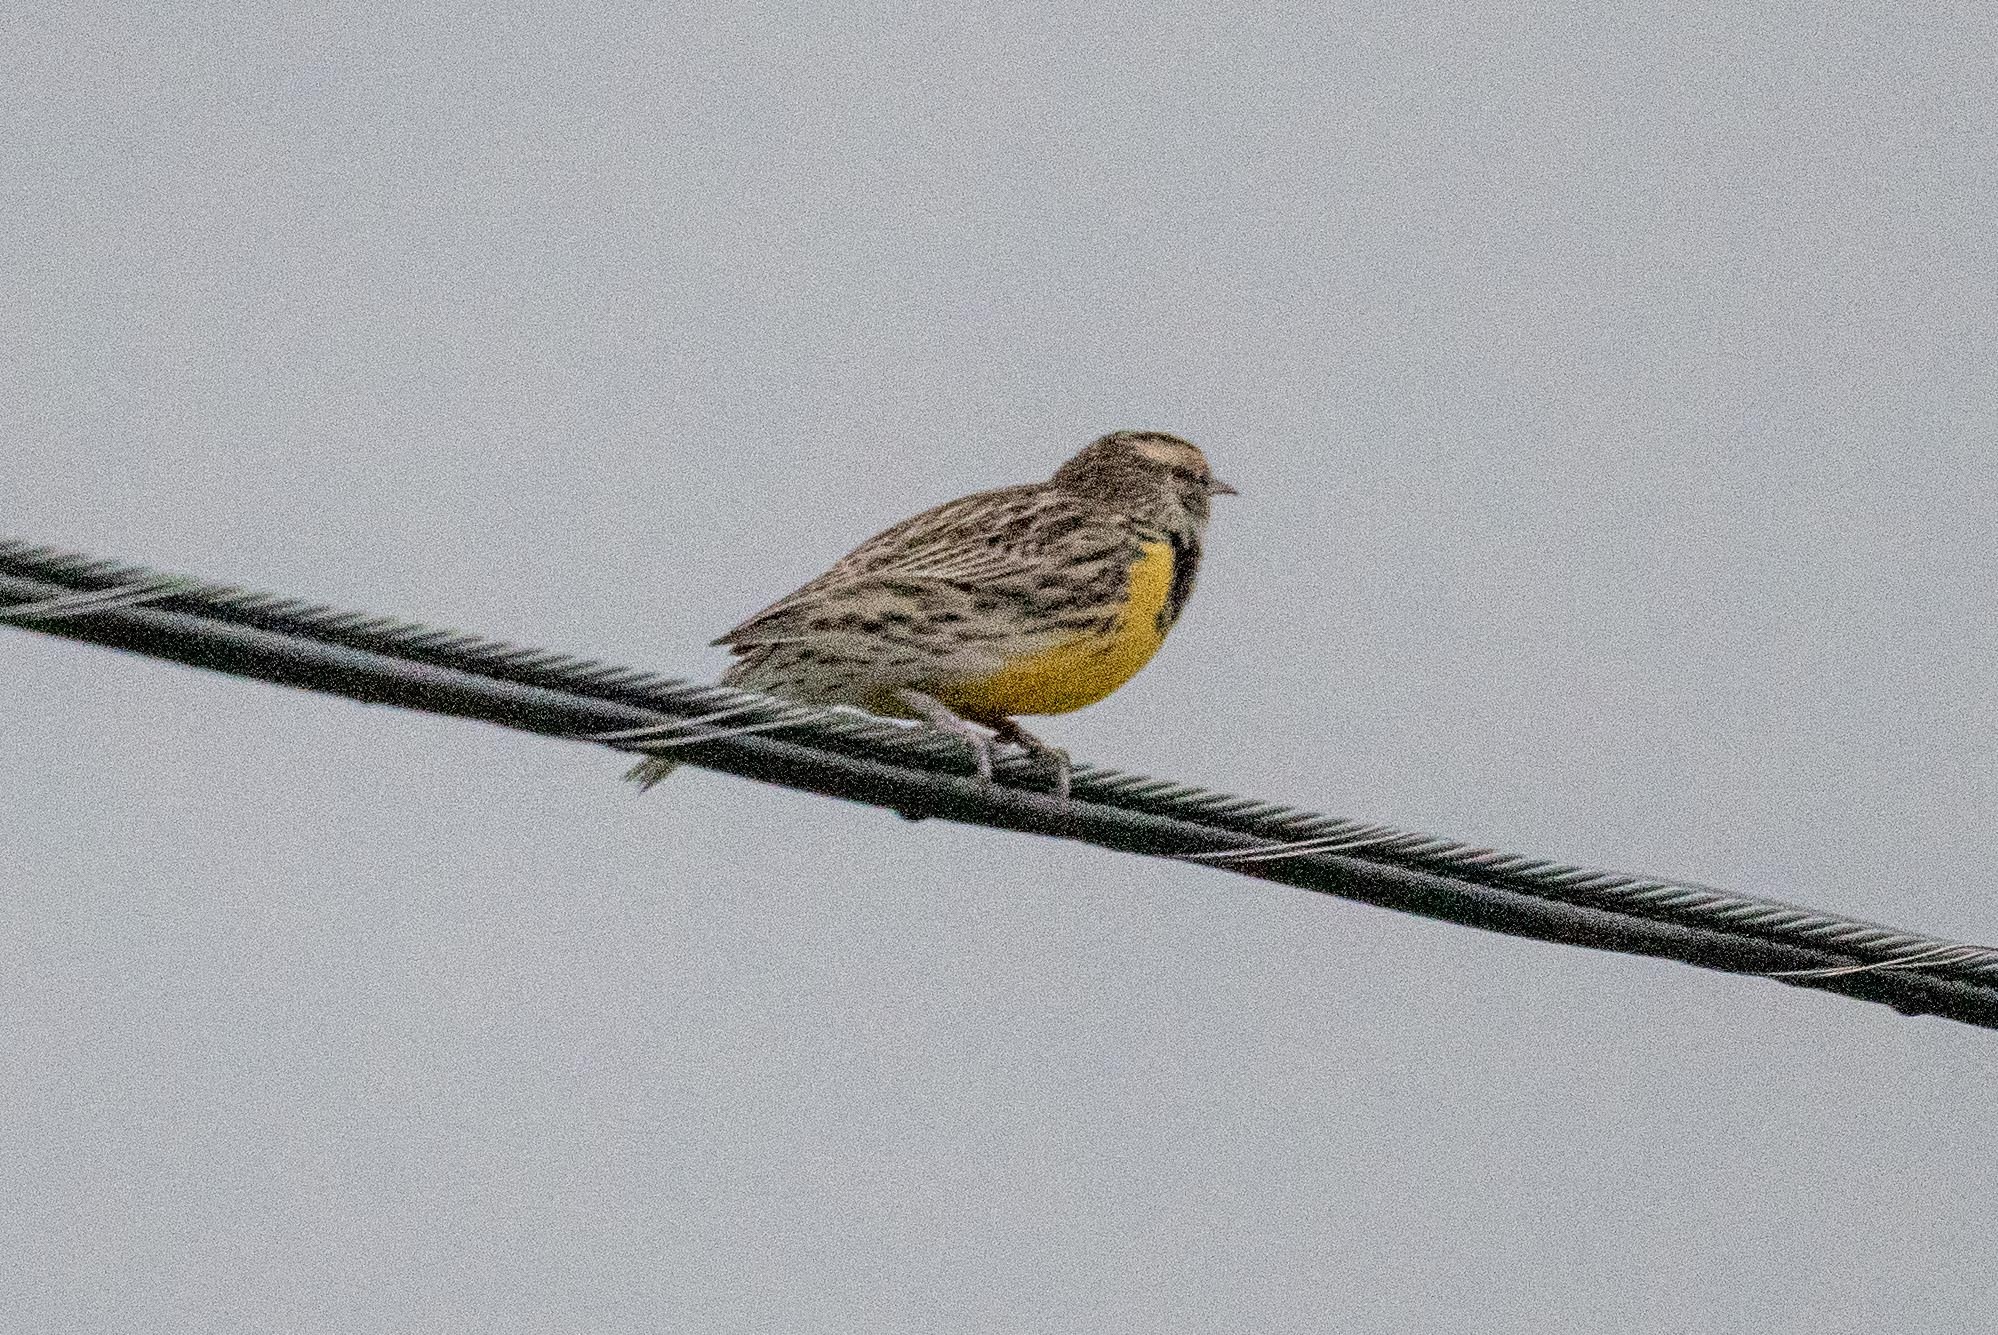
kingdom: Animalia
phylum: Chordata
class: Aves
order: Passeriformes
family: Icteridae
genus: Sturnella
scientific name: Sturnella neglecta
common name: Western meadowlark
